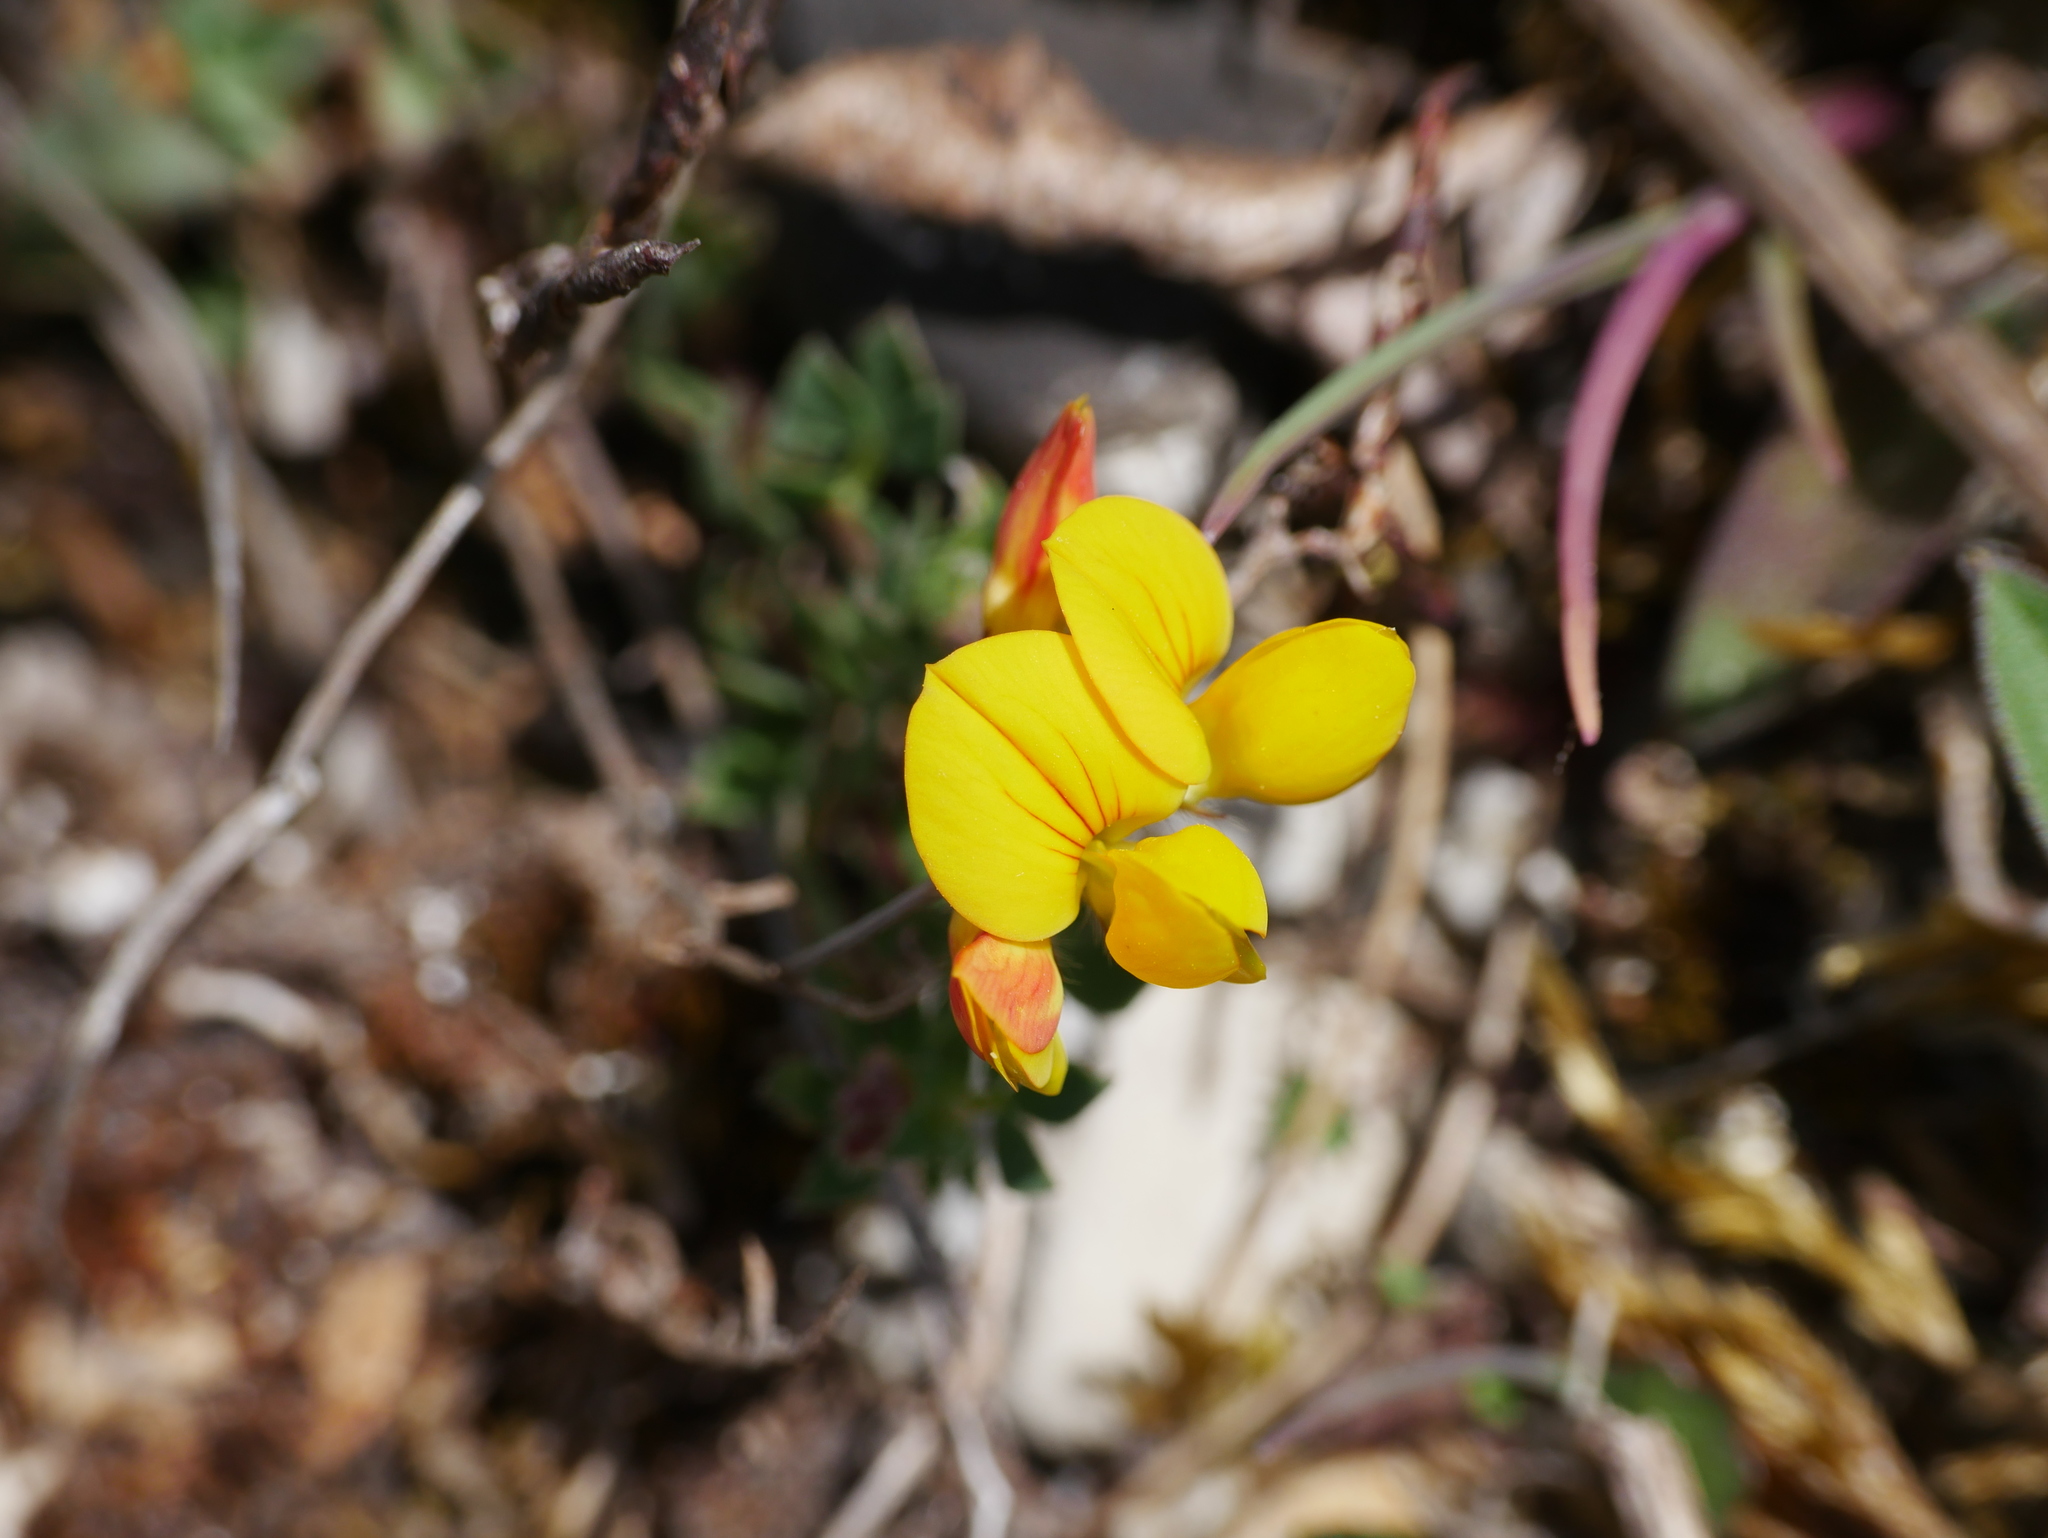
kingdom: Plantae
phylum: Tracheophyta
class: Magnoliopsida
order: Fabales
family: Fabaceae
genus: Lotus
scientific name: Lotus corniculatus
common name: Common bird's-foot-trefoil
